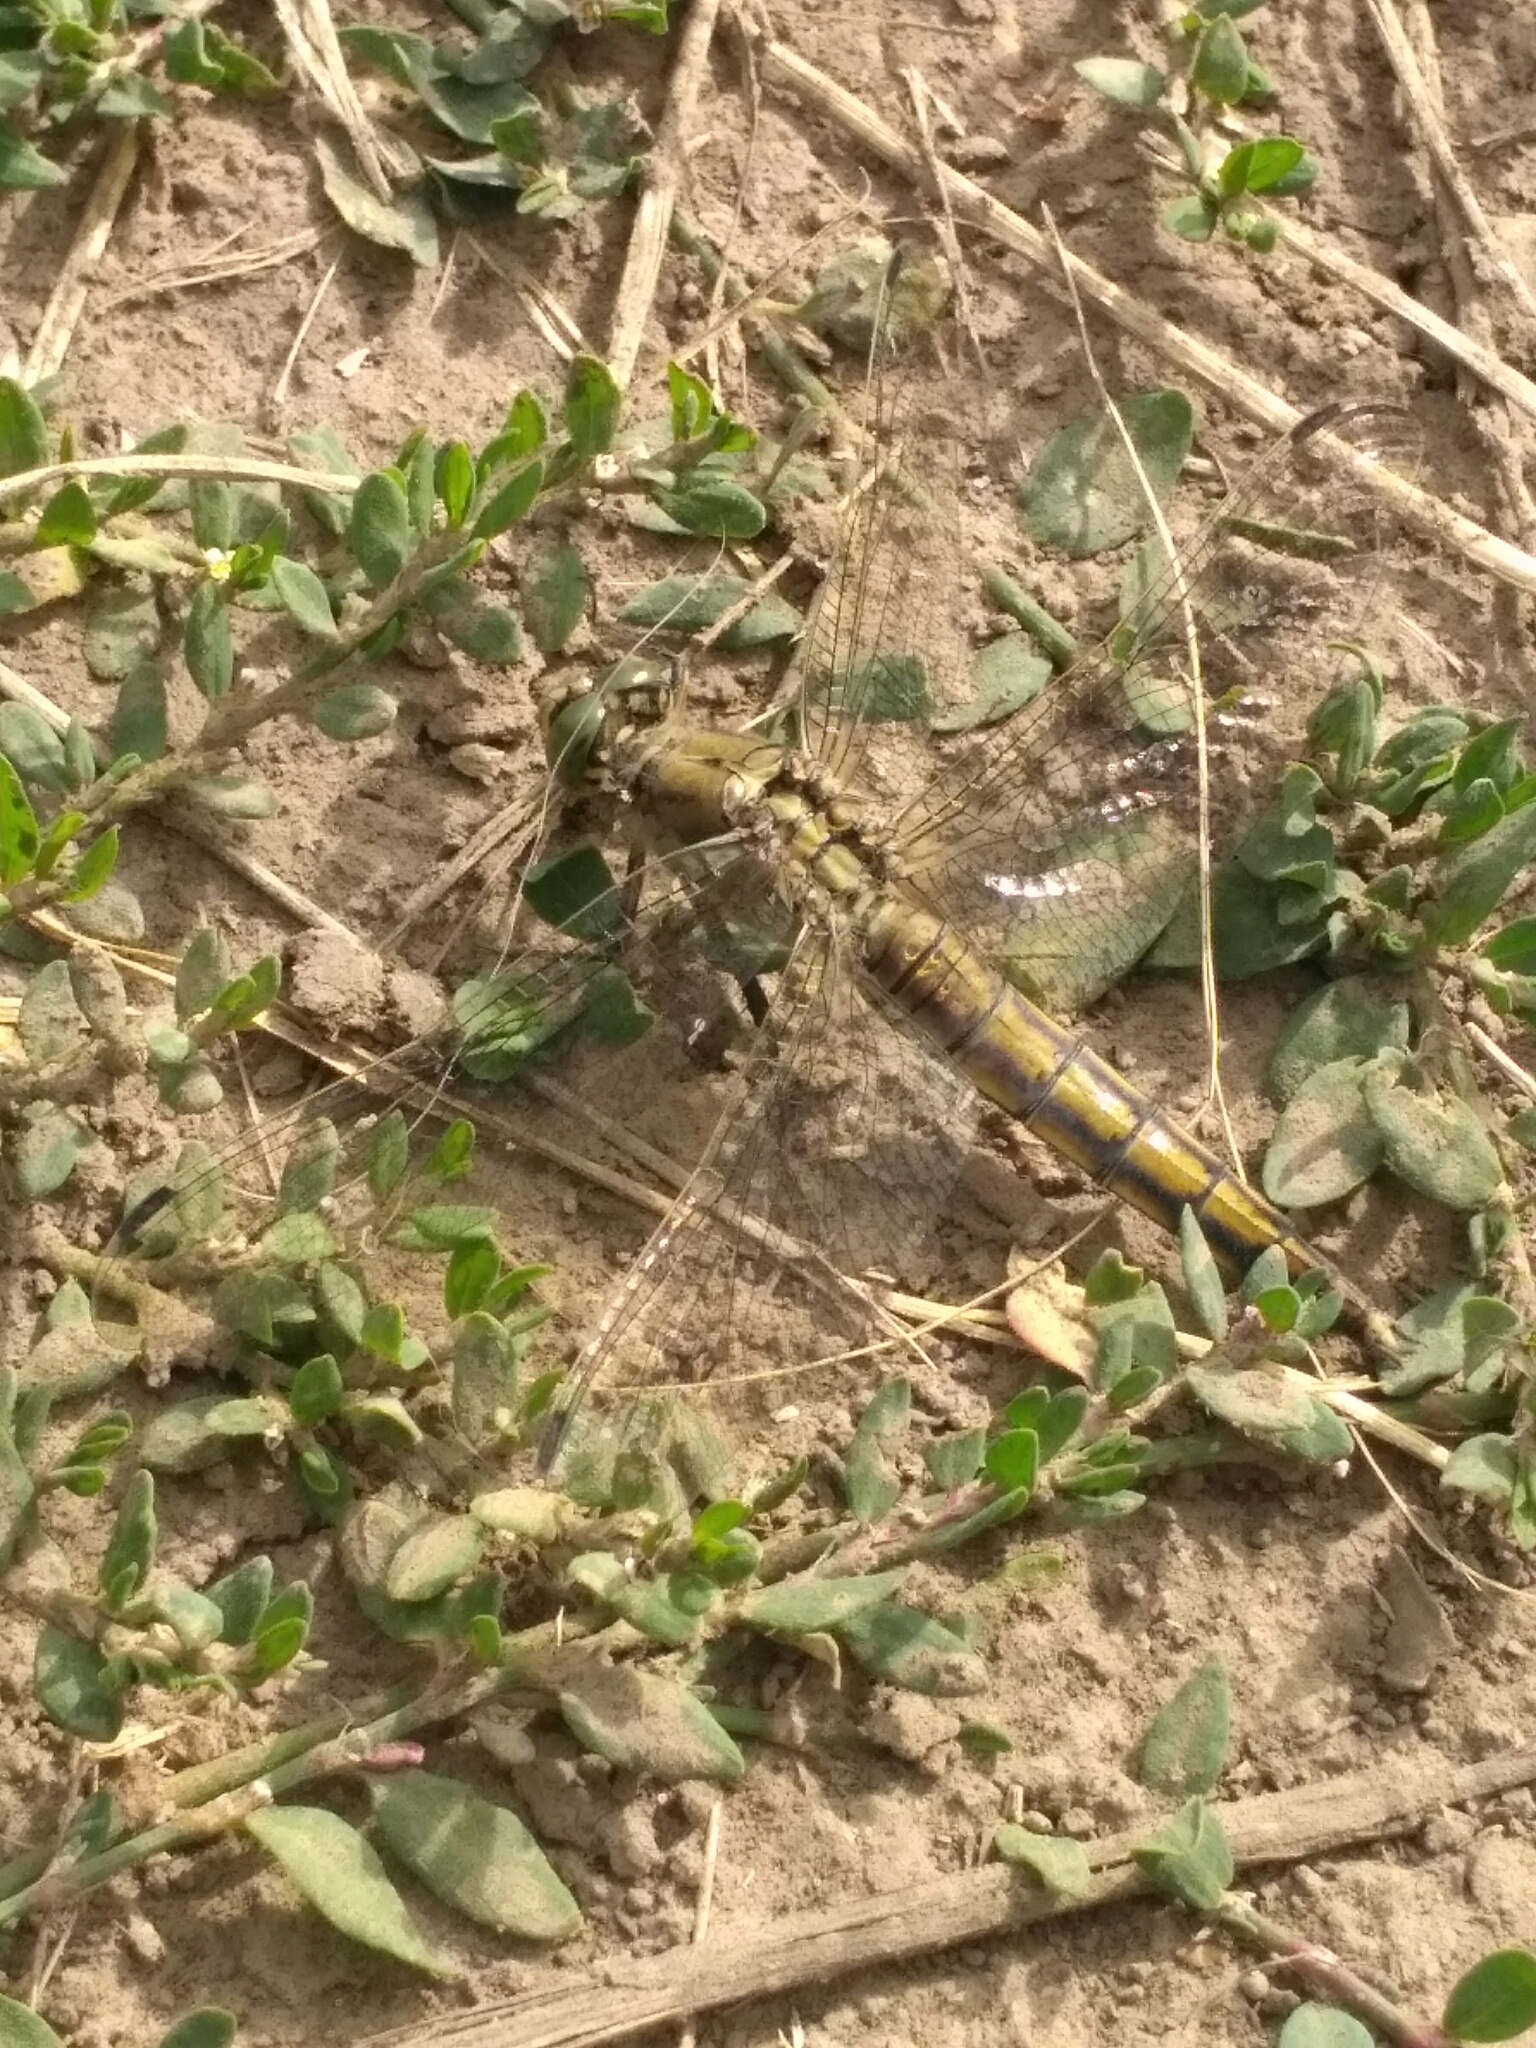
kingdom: Animalia
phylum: Arthropoda
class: Insecta
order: Odonata
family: Libellulidae
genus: Orthetrum
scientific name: Orthetrum cancellatum
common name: Black-tailed skimmer
